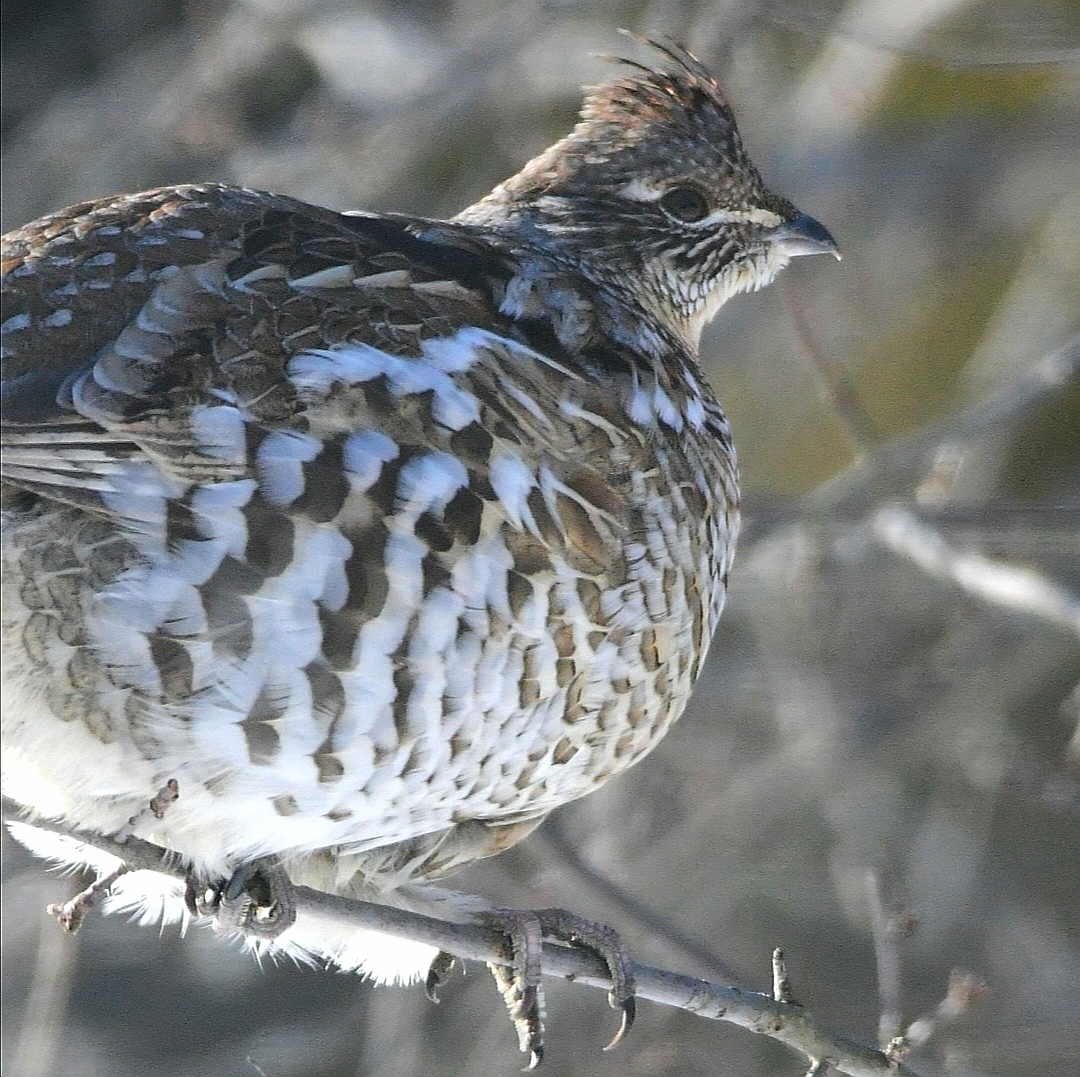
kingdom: Animalia
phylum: Chordata
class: Aves
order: Galliformes
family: Phasianidae
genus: Bonasa
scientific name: Bonasa umbellus
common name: Ruffed grouse
